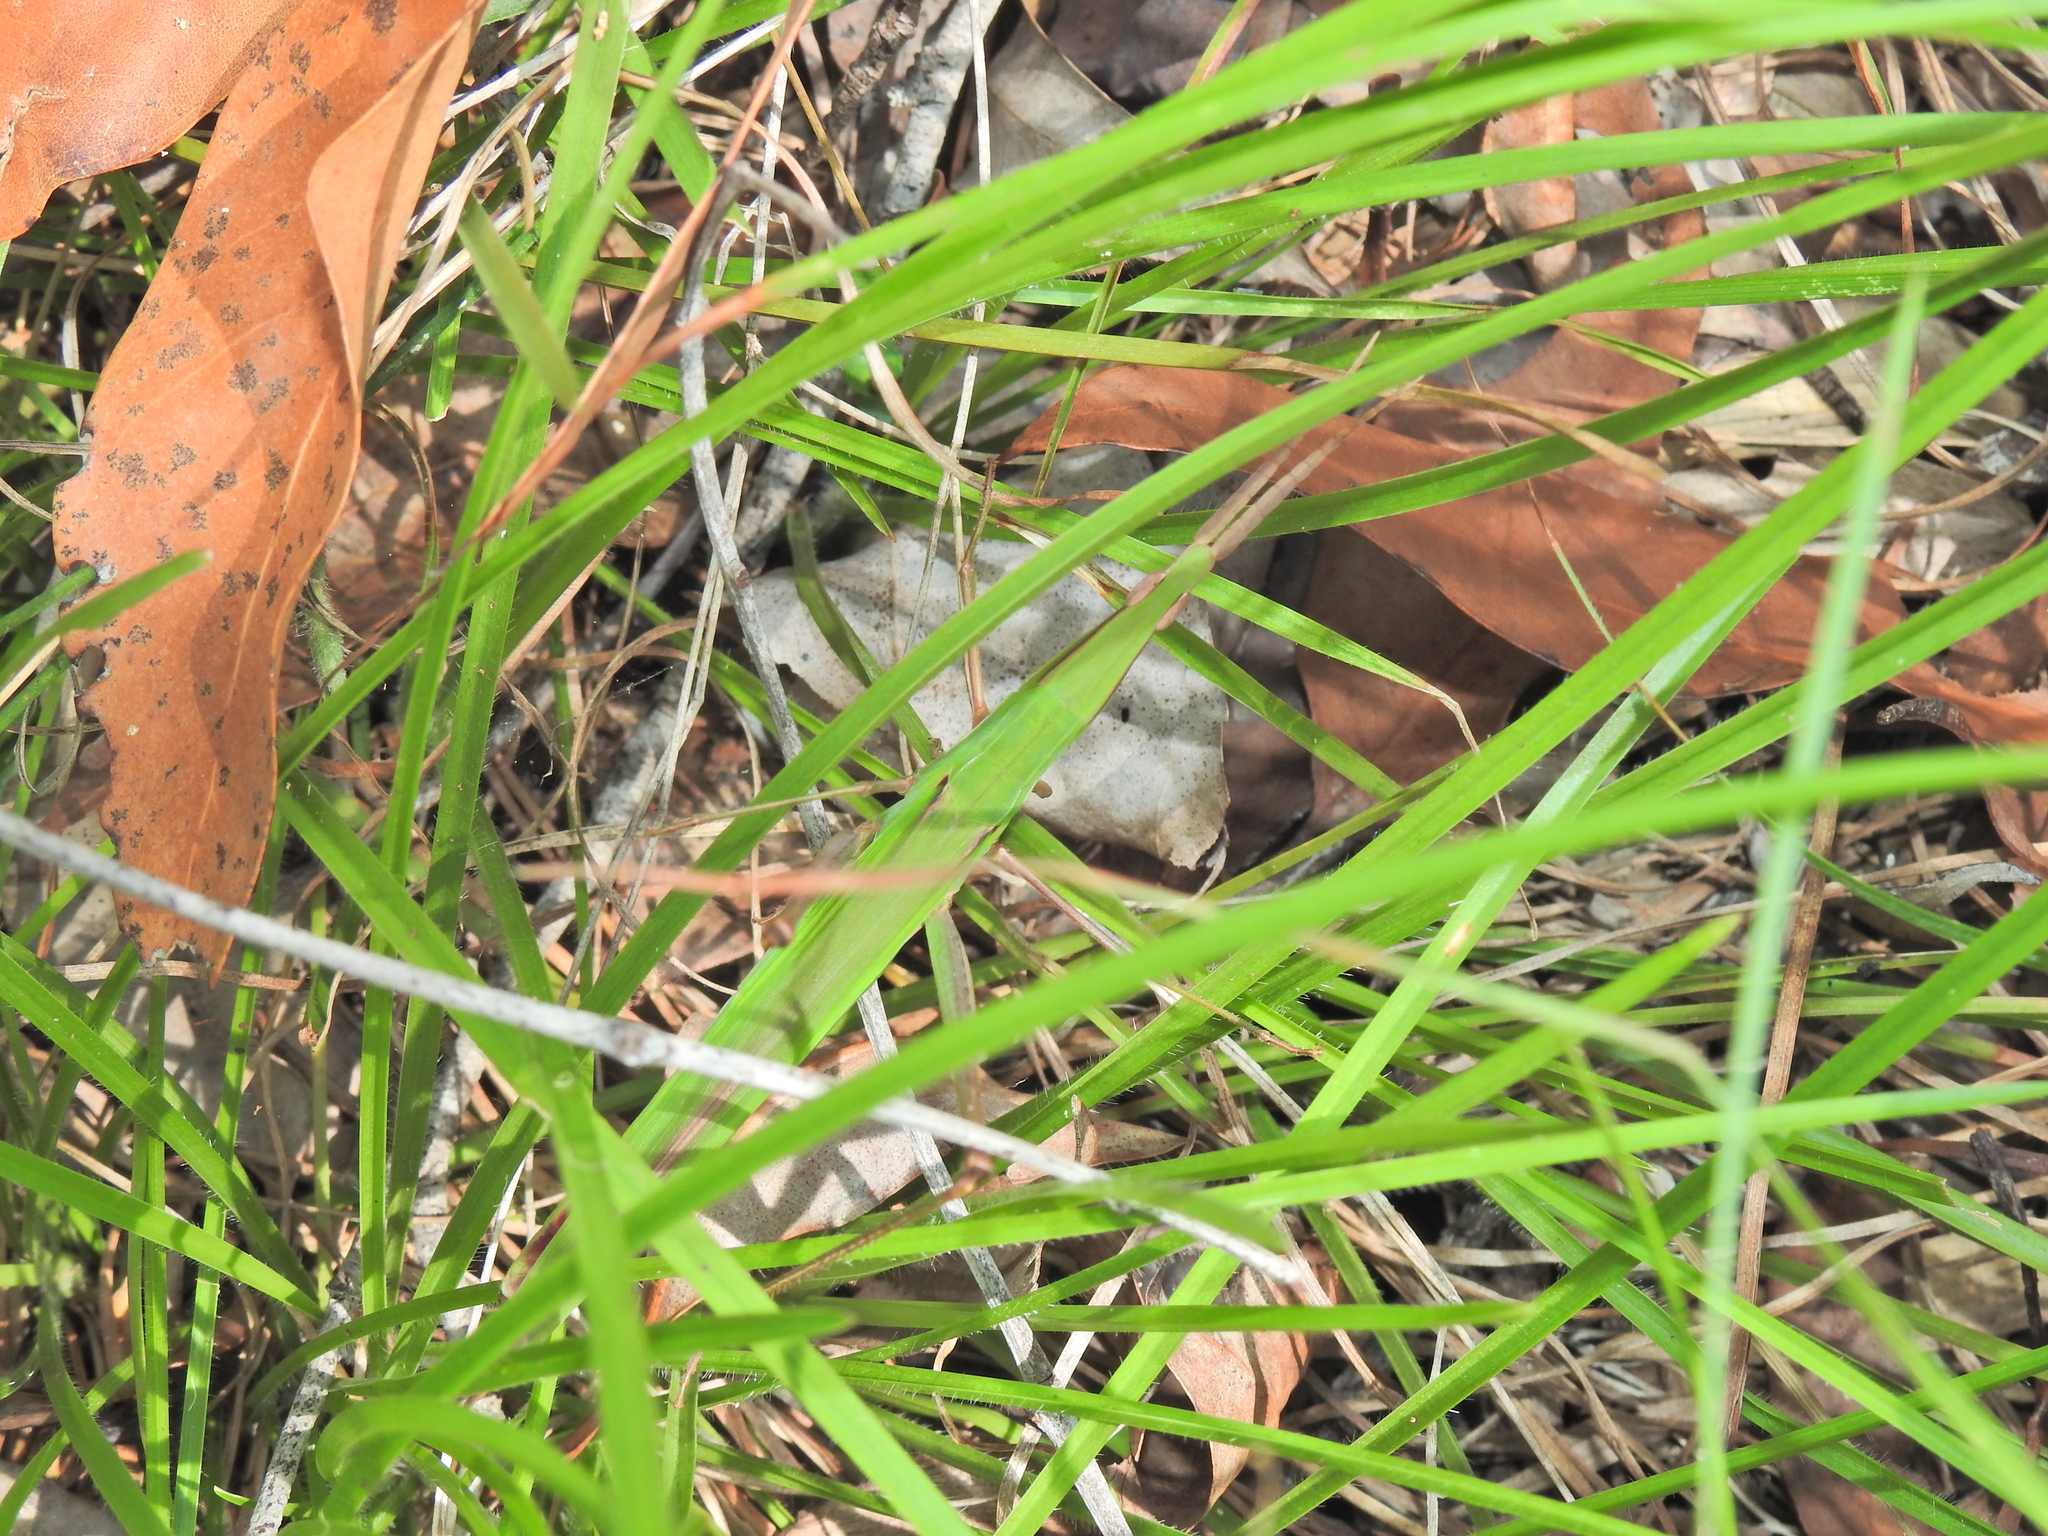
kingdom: Animalia
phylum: Arthropoda
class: Insecta
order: Orthoptera
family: Acrididae
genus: Acrida
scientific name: Acrida conica
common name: Giant green slantface
